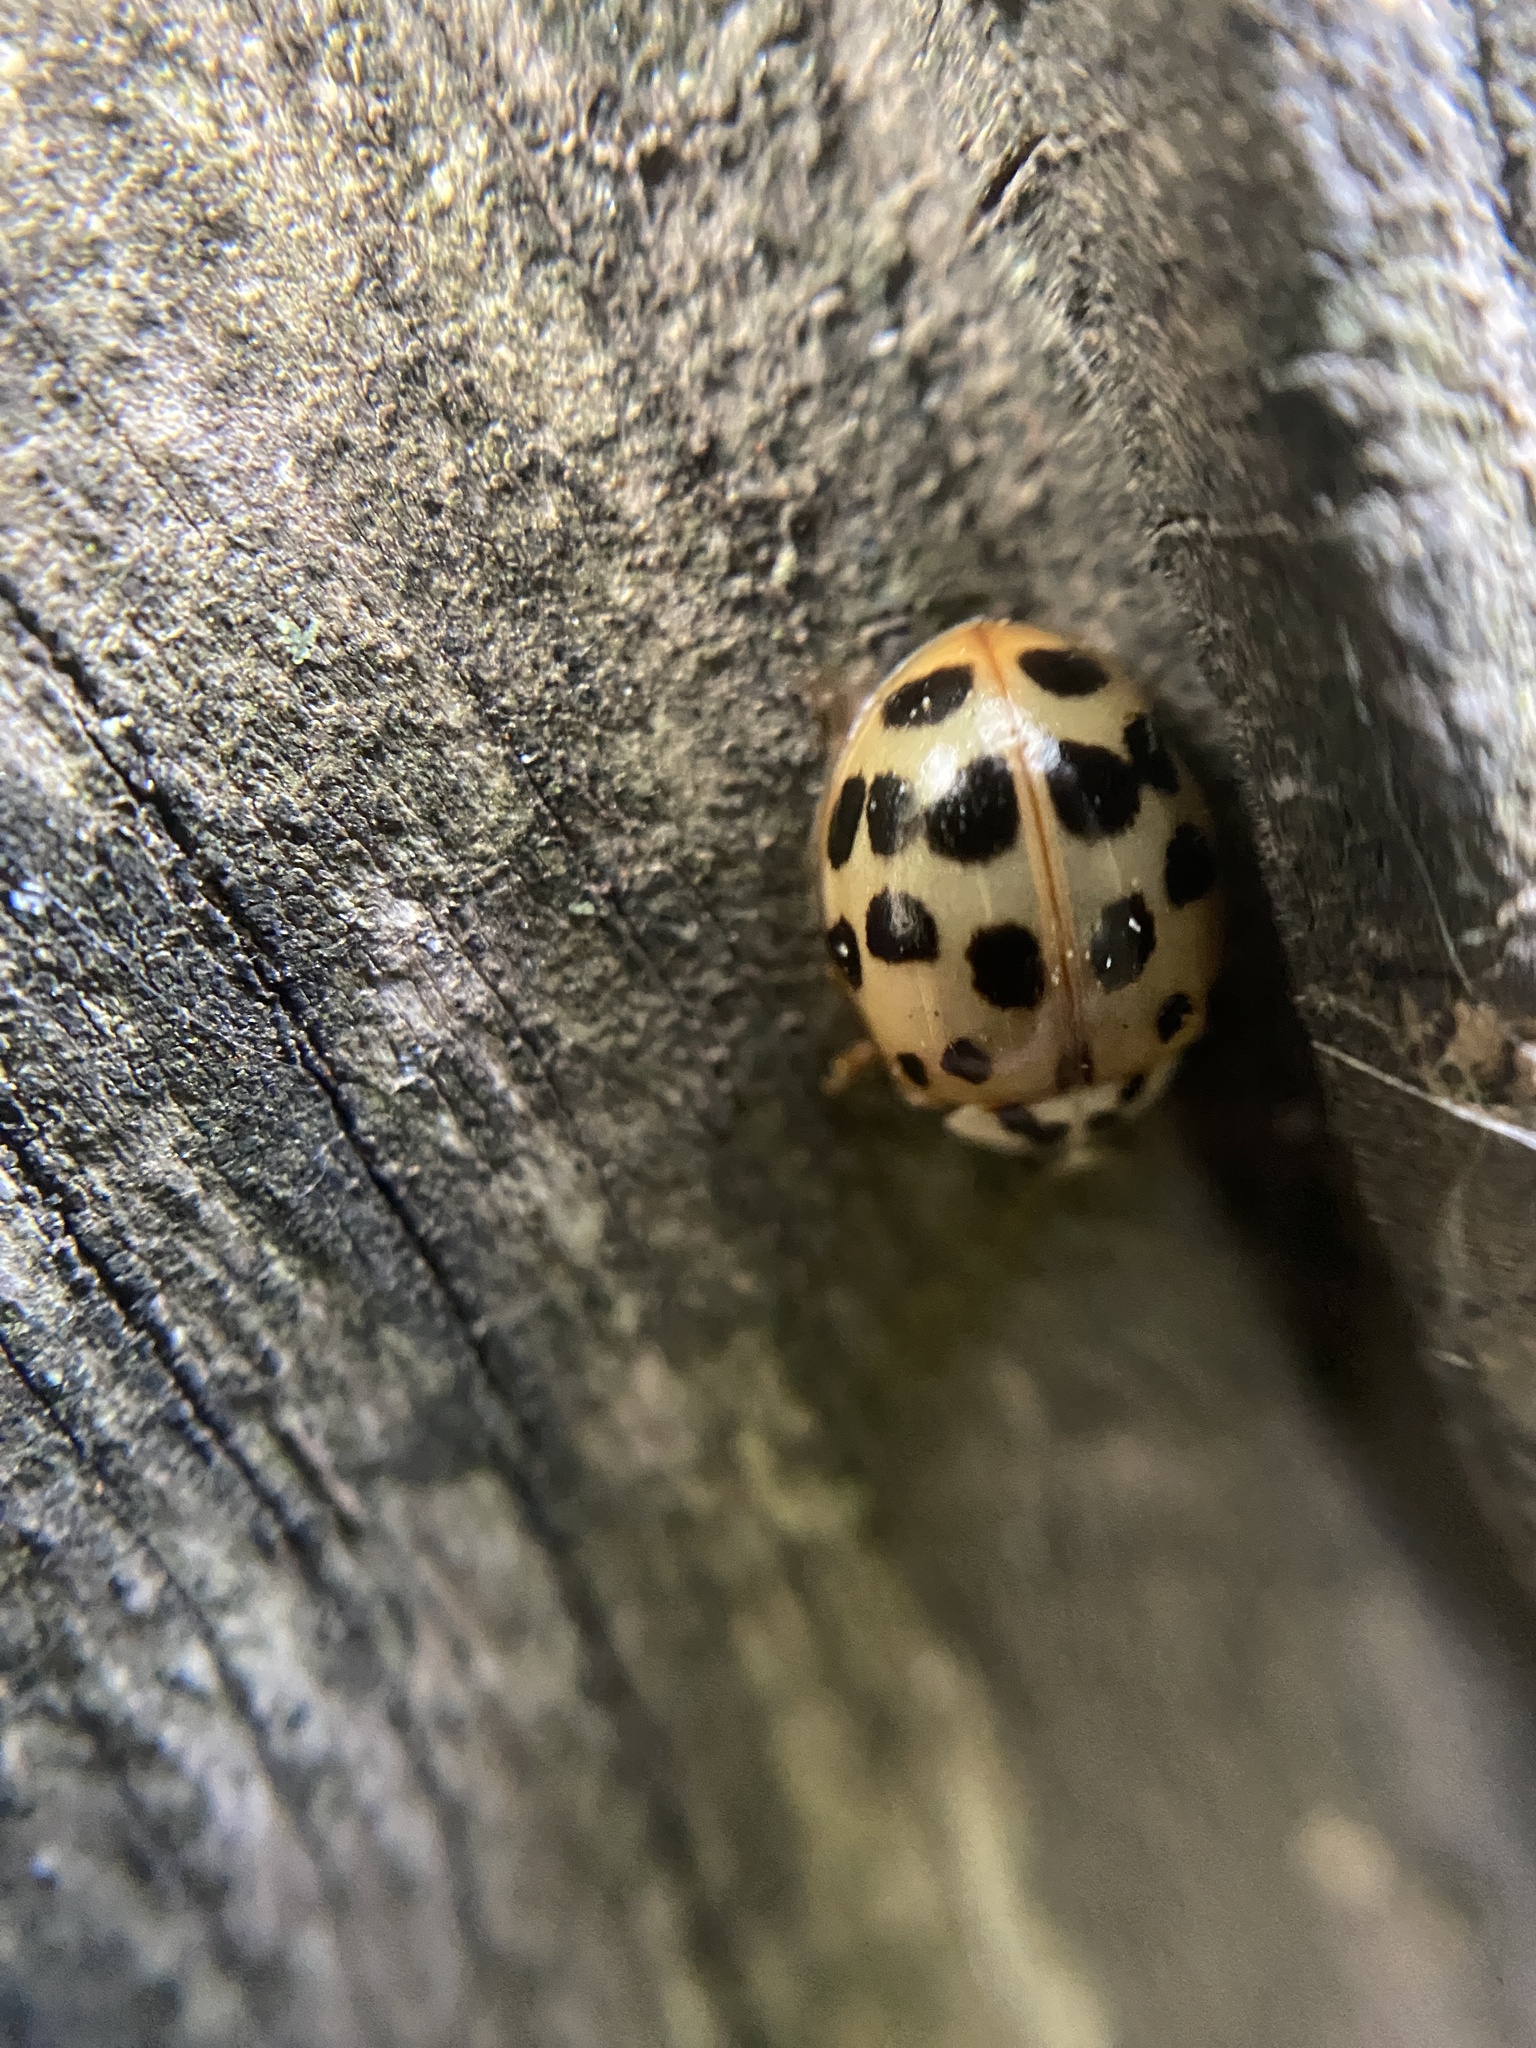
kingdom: Animalia
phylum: Arthropoda
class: Insecta
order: Coleoptera
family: Coccinellidae
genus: Harmonia
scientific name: Harmonia axyridis
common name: Harlequin ladybird
